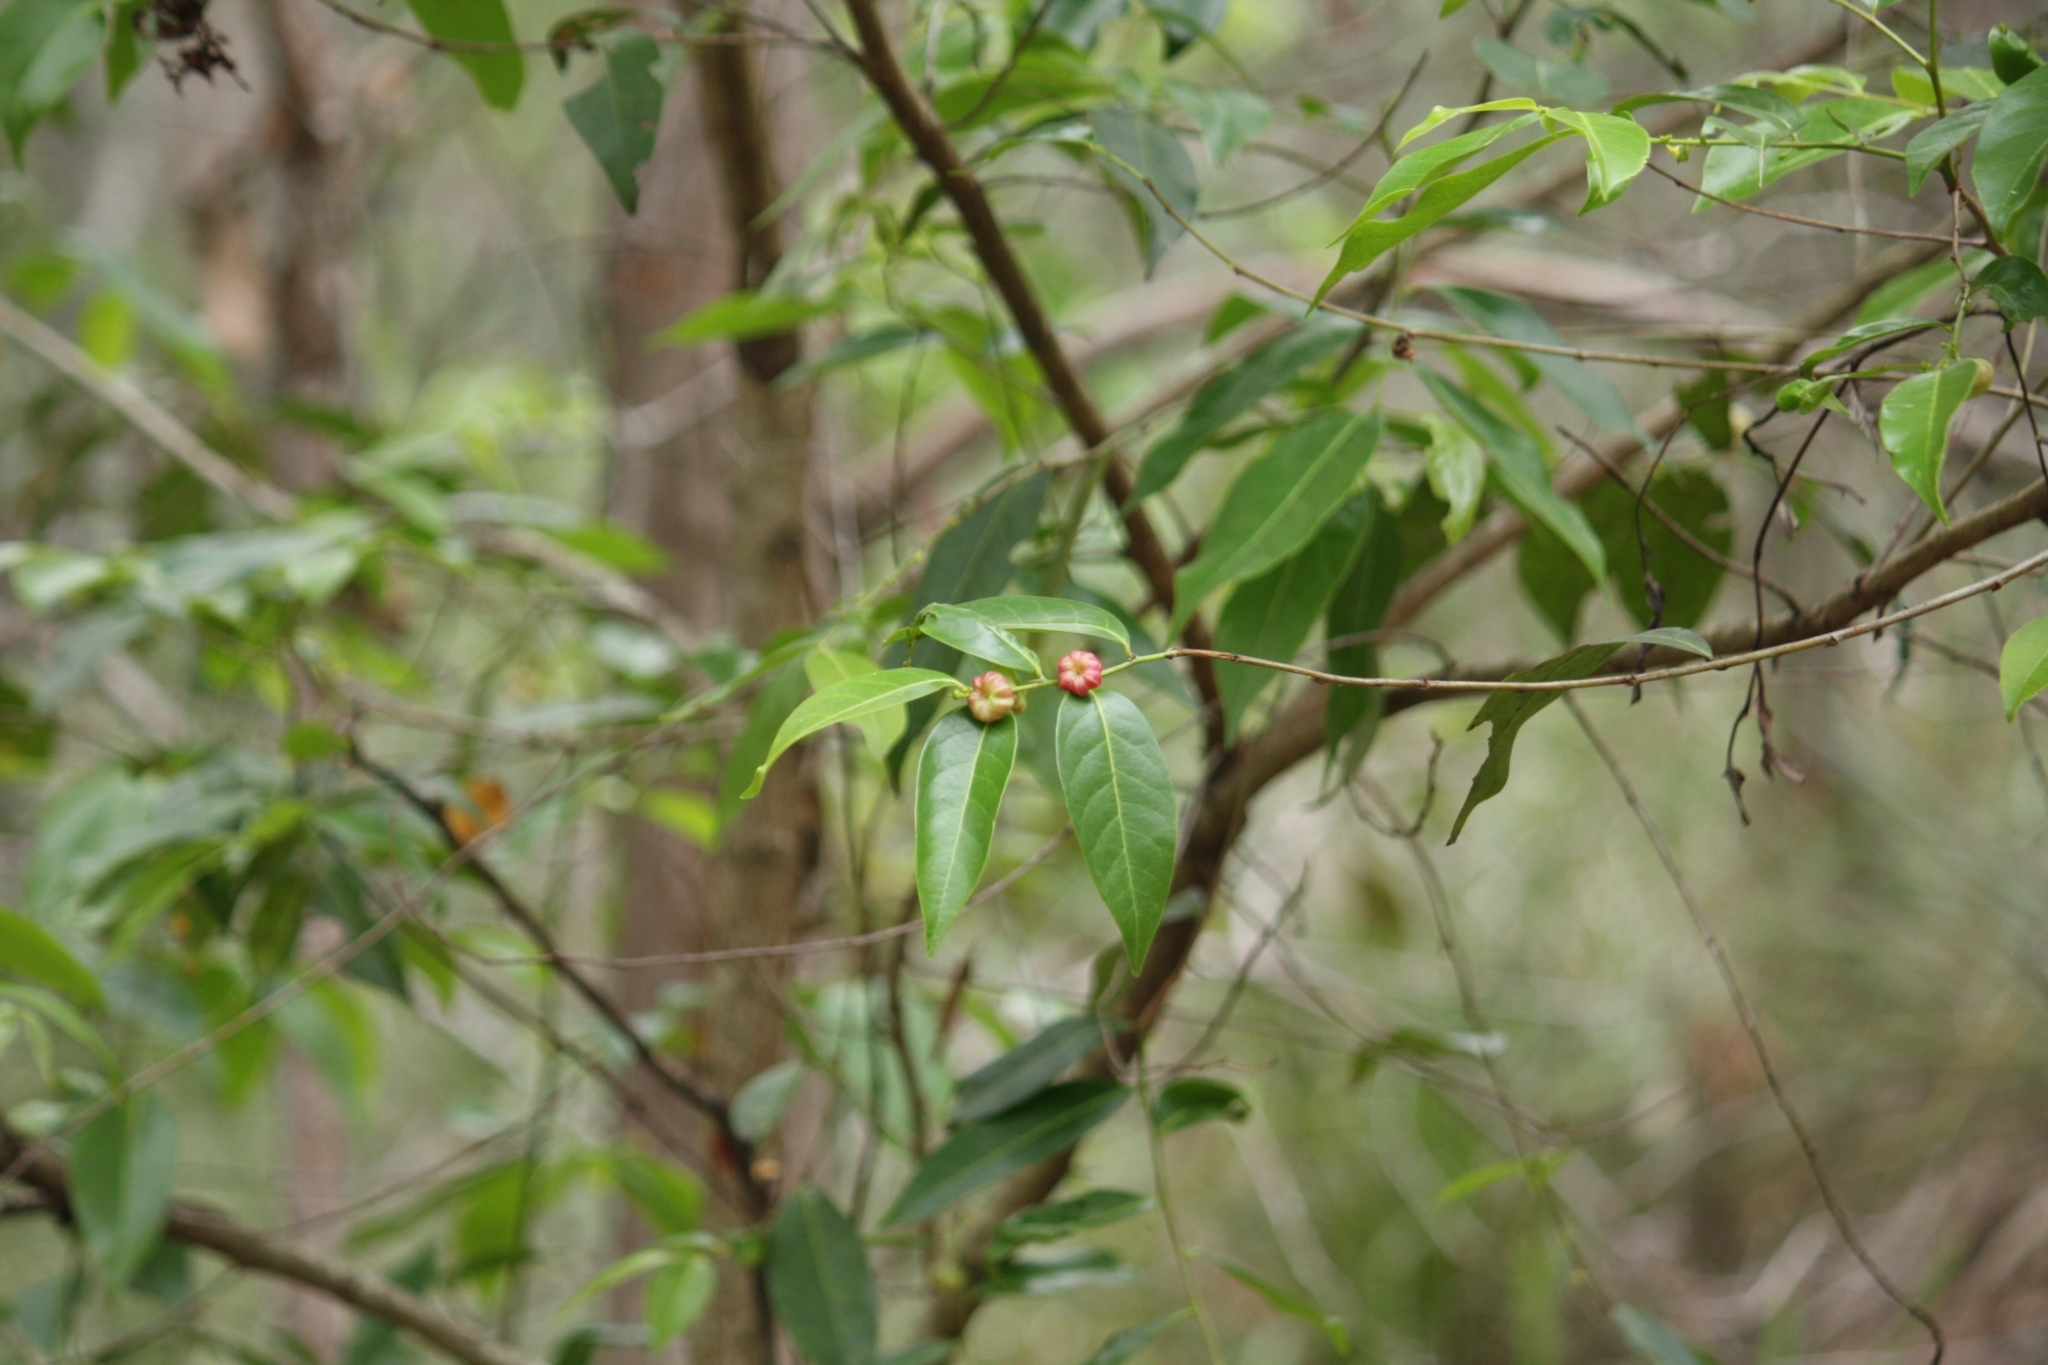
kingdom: Plantae
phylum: Tracheophyta
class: Magnoliopsida
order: Malpighiales
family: Phyllanthaceae
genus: Glochidion
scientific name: Glochidion ferdinandi
